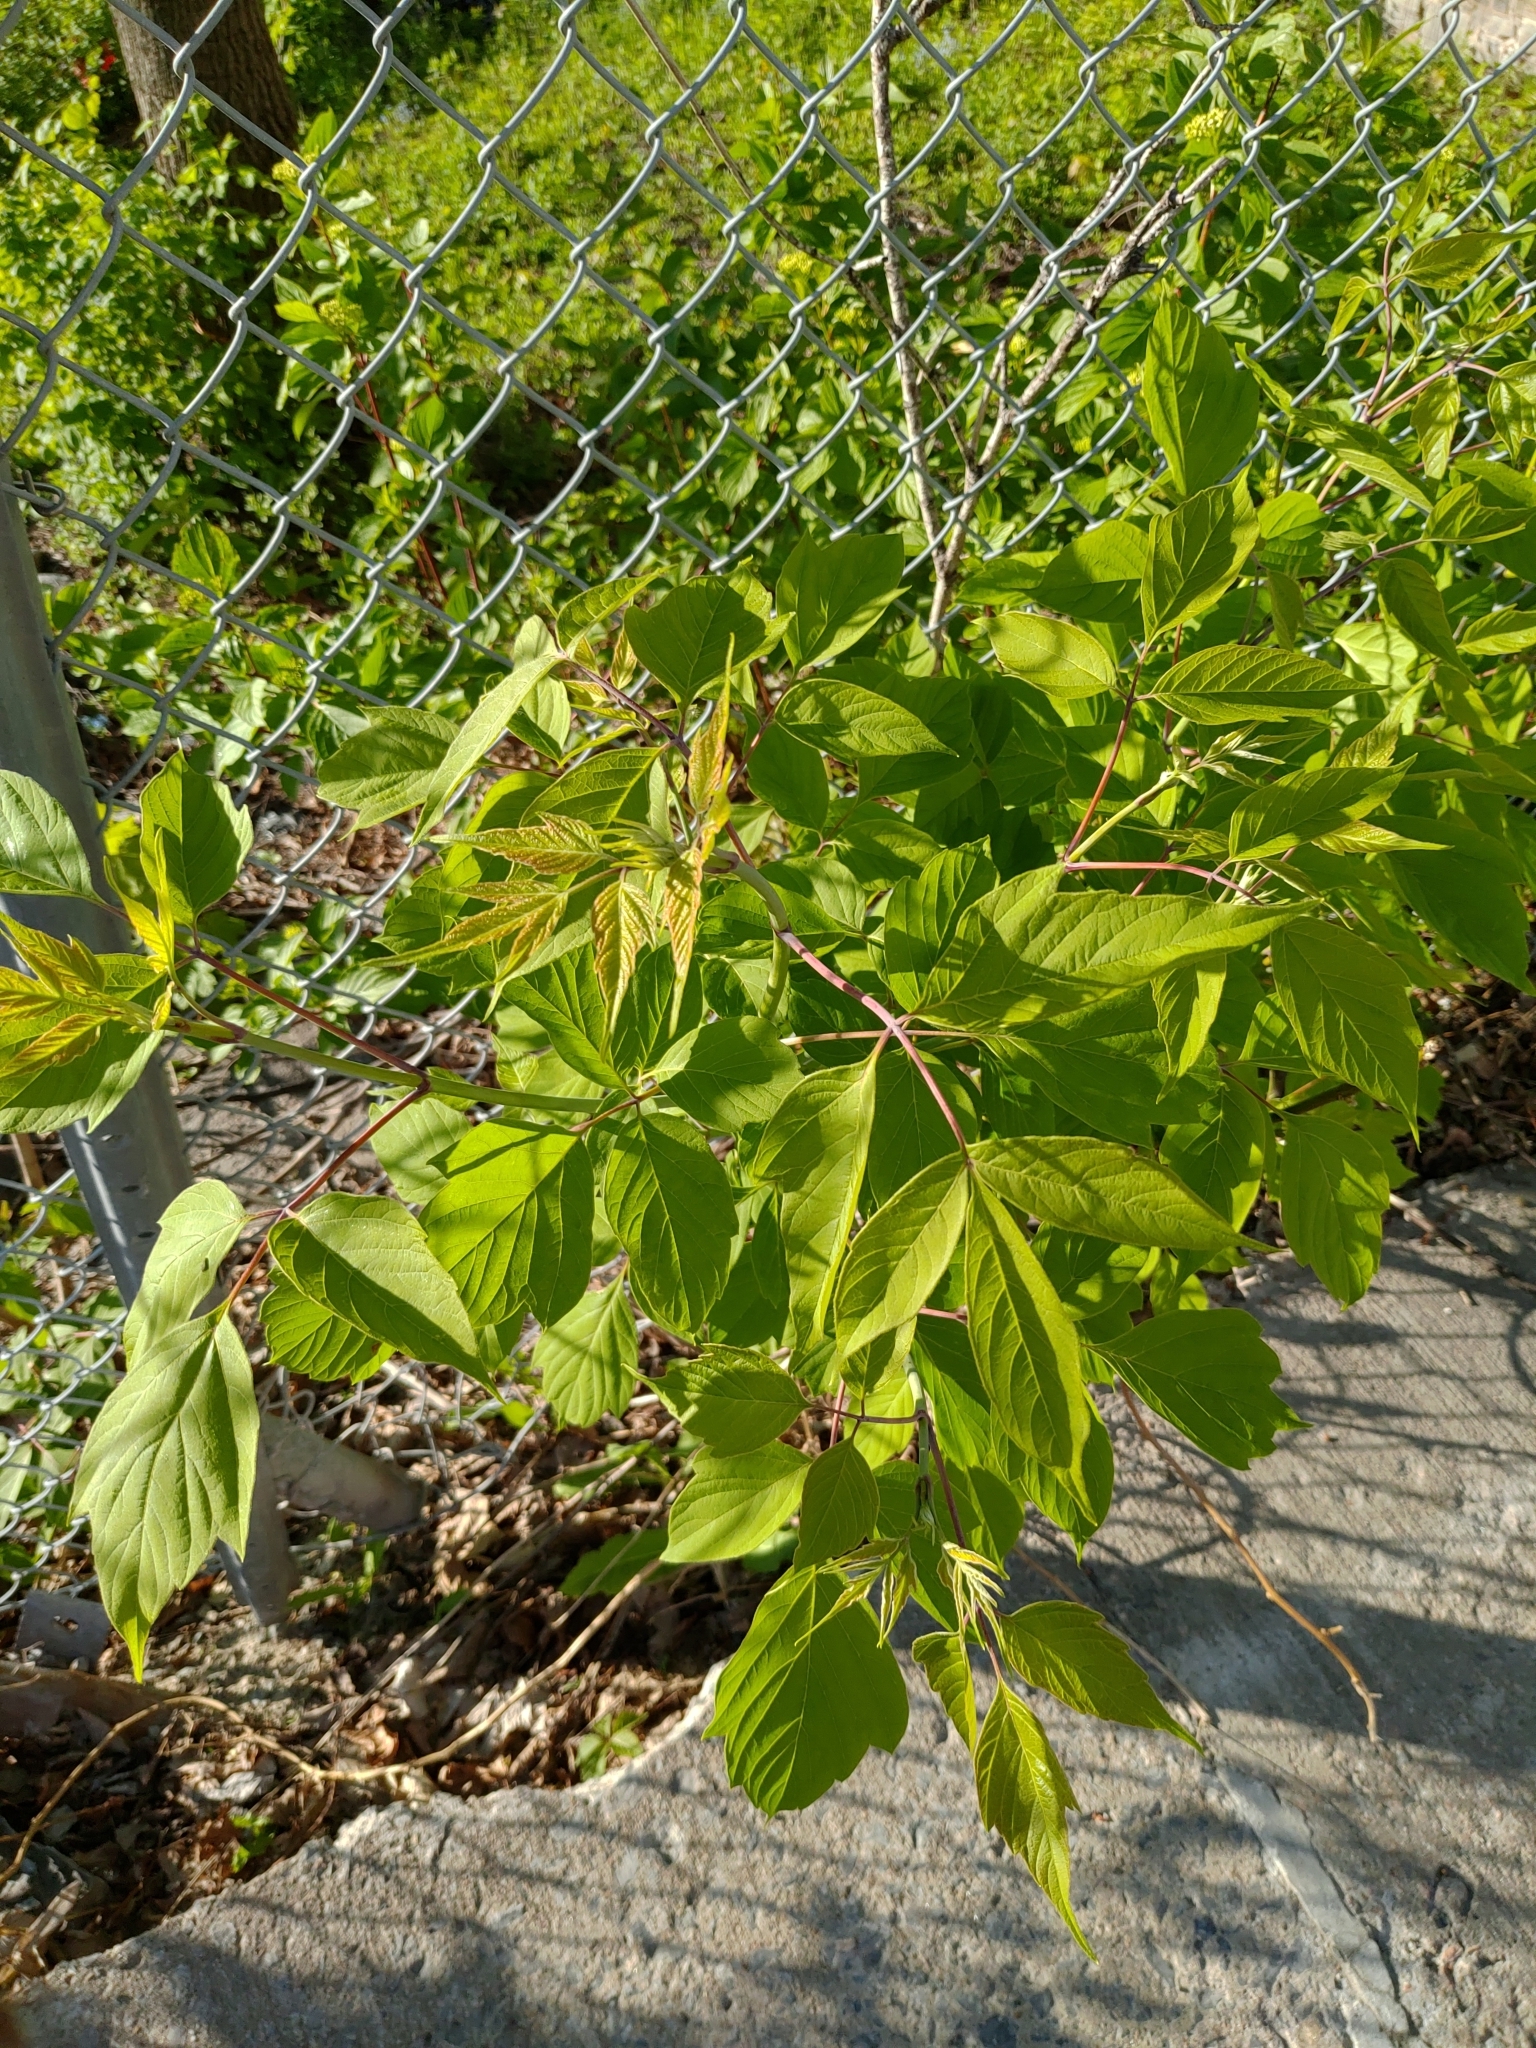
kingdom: Plantae
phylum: Tracheophyta
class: Magnoliopsida
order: Sapindales
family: Sapindaceae
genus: Acer
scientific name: Acer negundo
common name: Ashleaf maple
